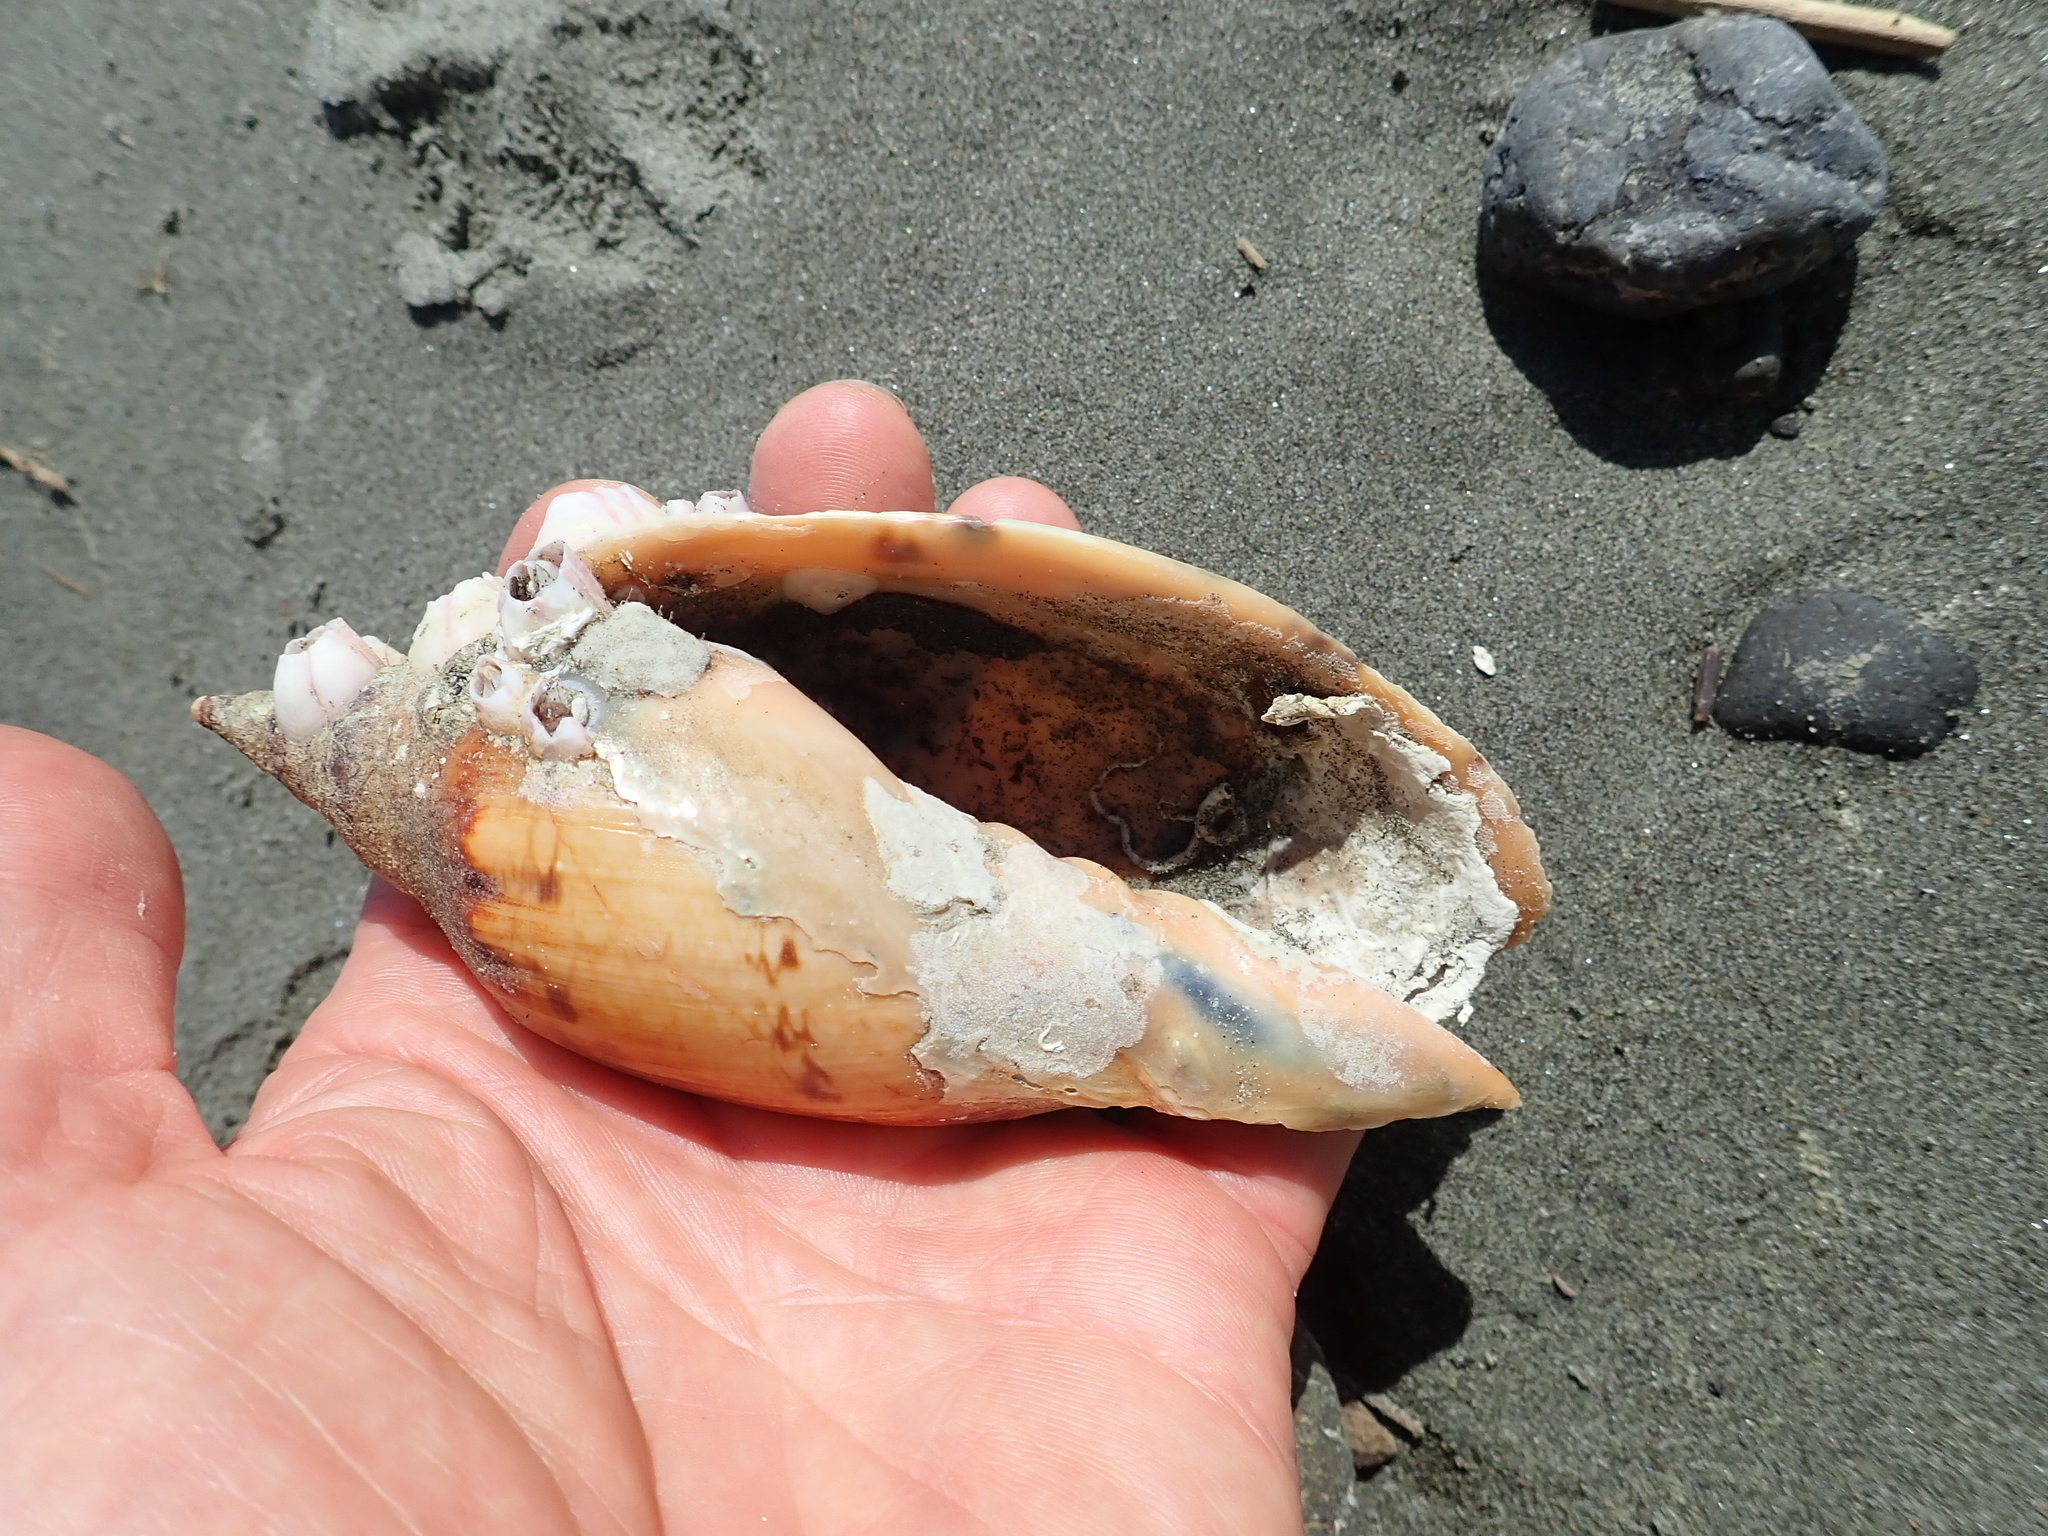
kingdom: Animalia
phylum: Mollusca
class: Gastropoda
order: Neogastropoda
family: Volutidae
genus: Alcithoe
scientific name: Alcithoe arabica
